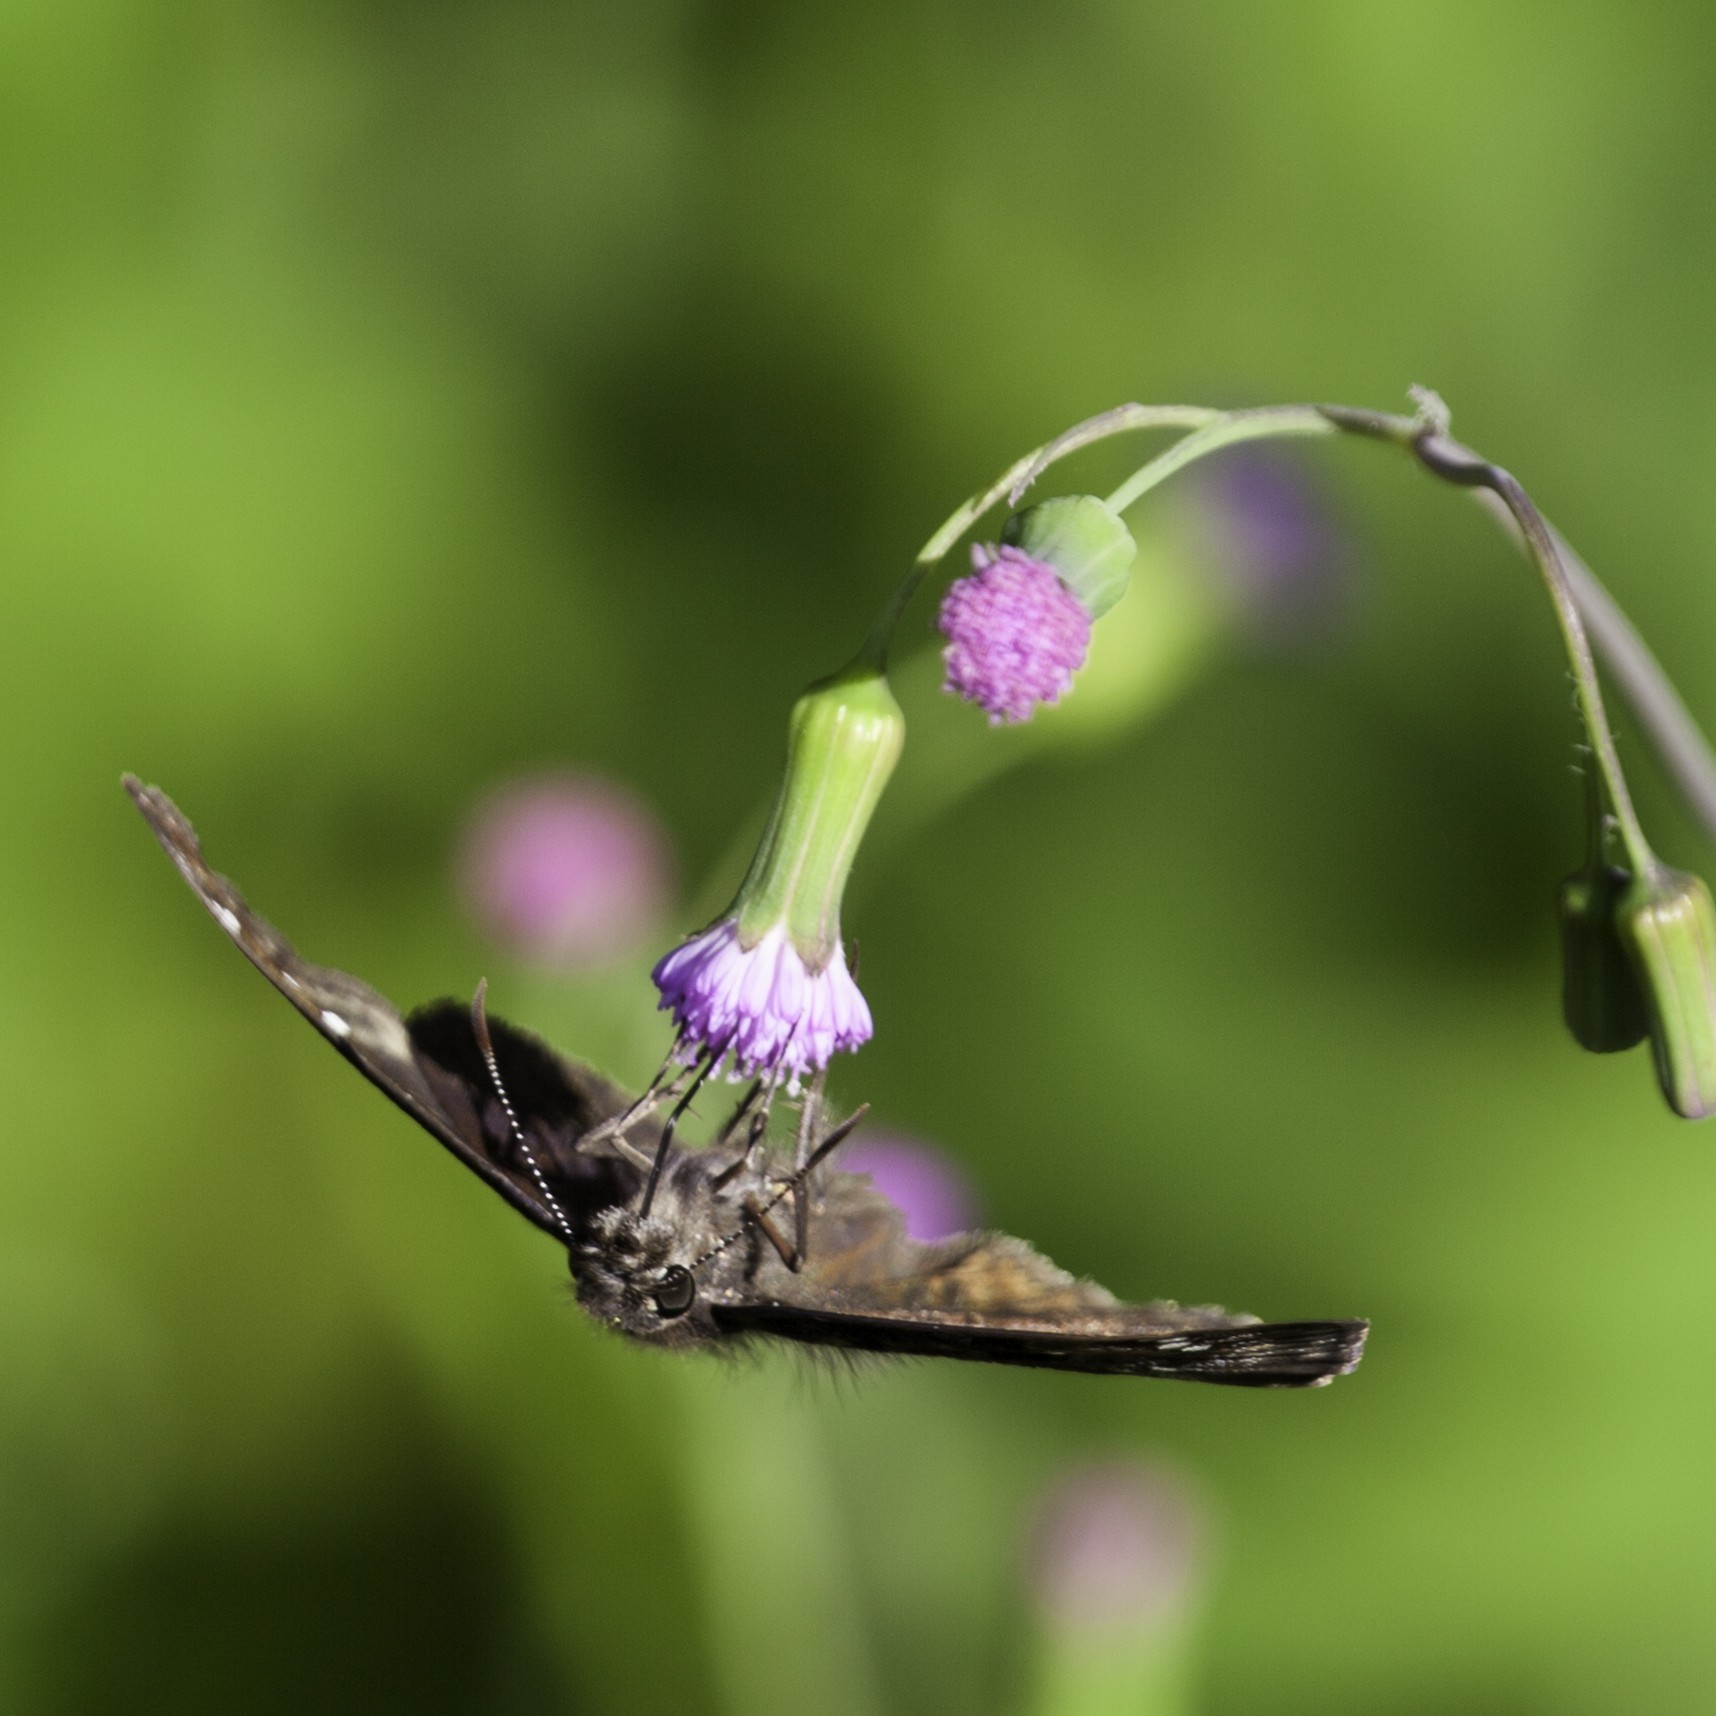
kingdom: Animalia
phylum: Arthropoda
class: Insecta
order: Lepidoptera
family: Hesperiidae
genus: Erynnis
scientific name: Erynnis horatius
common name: Horace's duskywing
